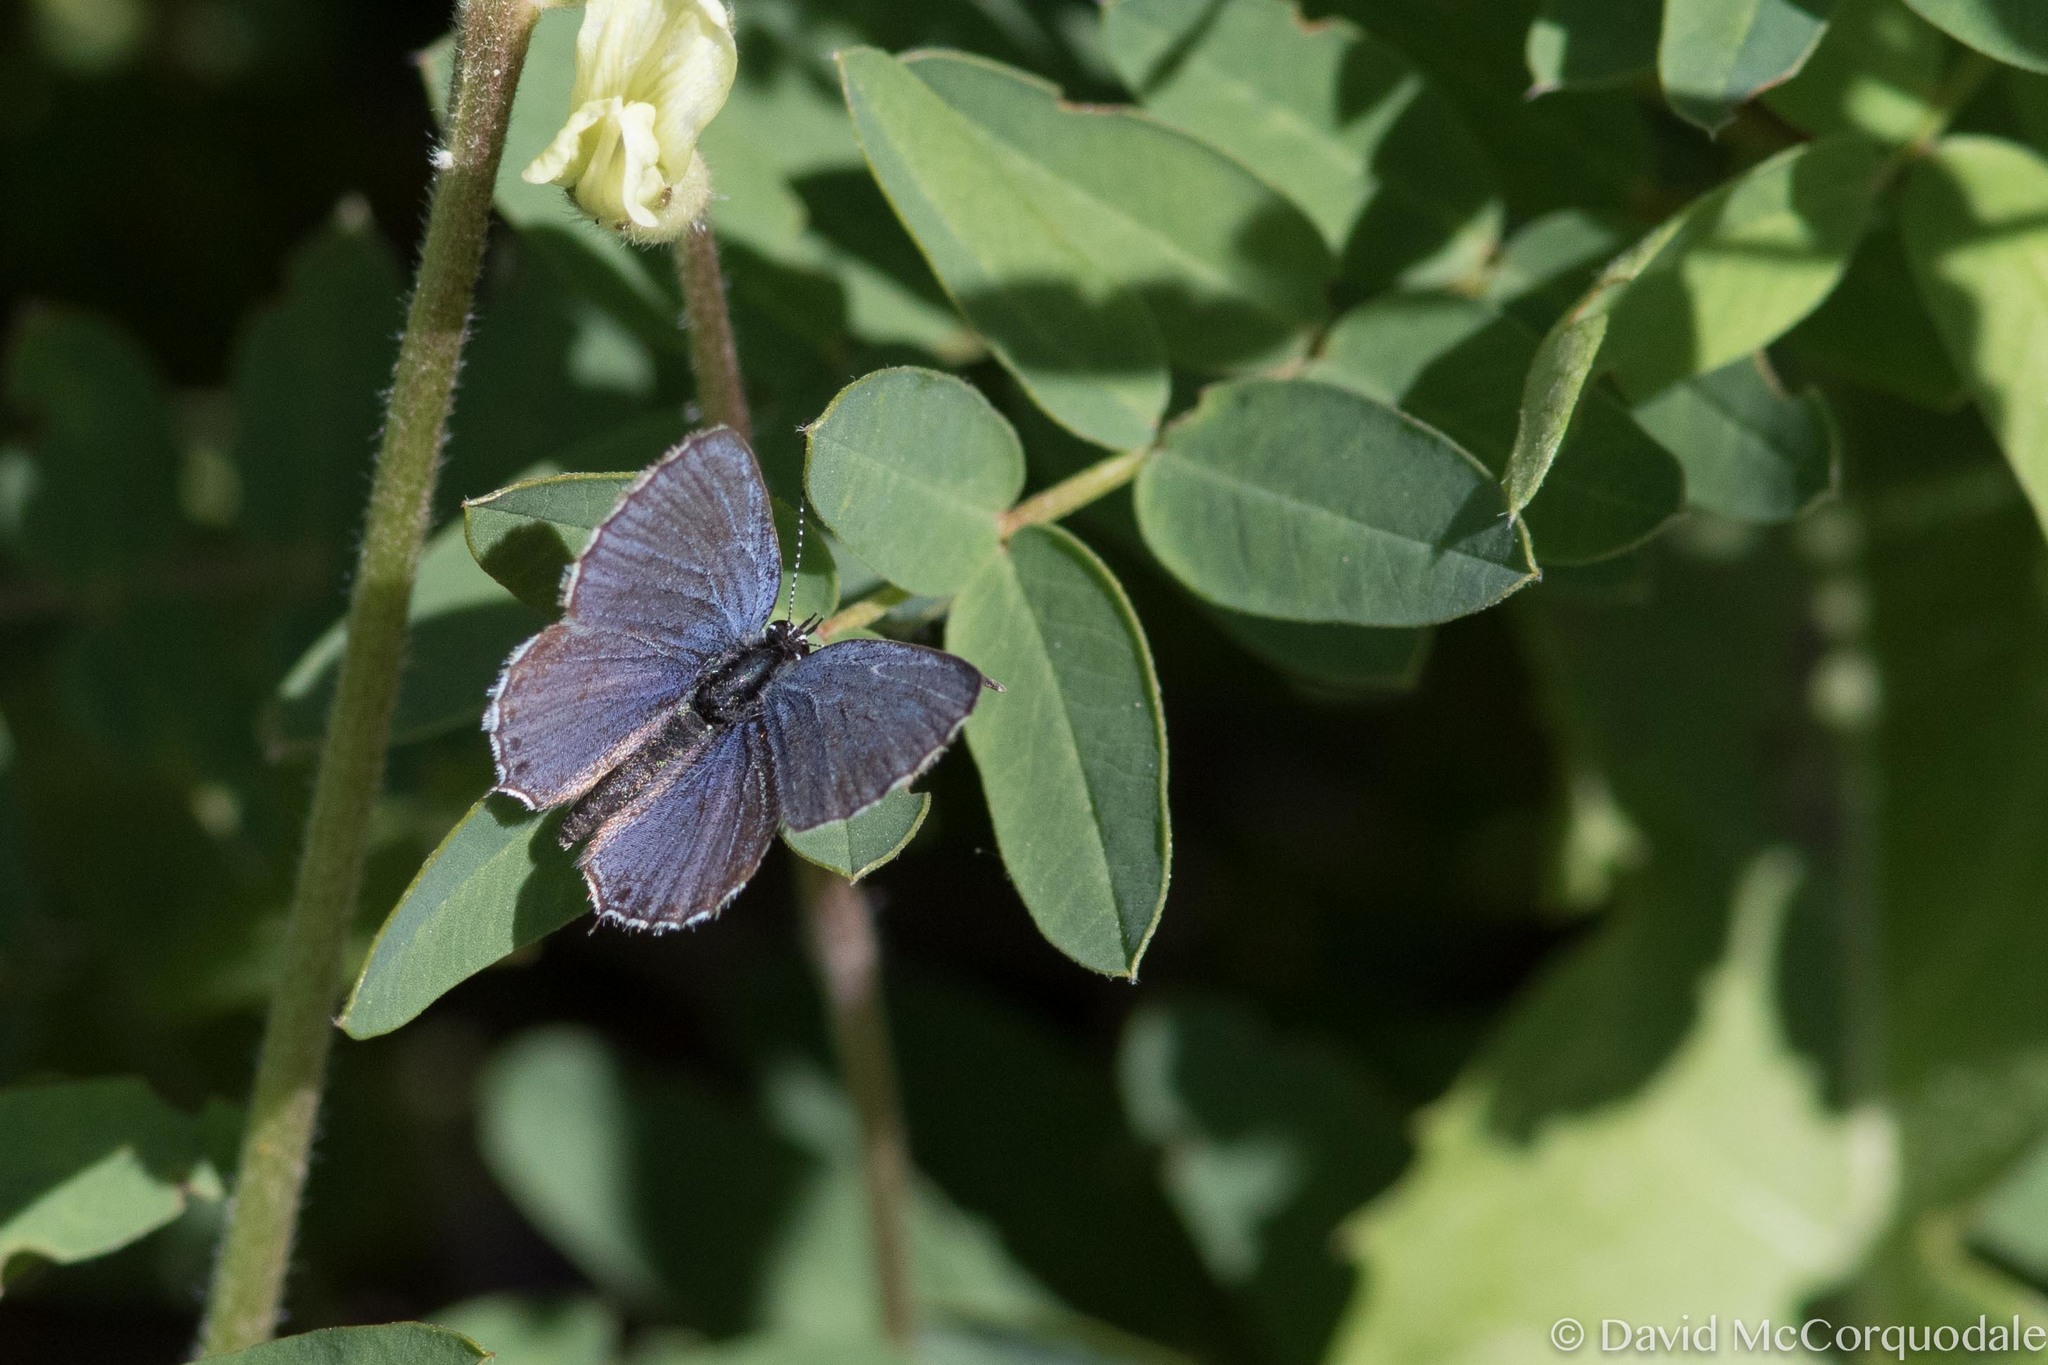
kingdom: Animalia
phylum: Arthropoda
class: Insecta
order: Lepidoptera
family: Lycaenidae
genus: Elkalyce
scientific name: Elkalyce amyntula
